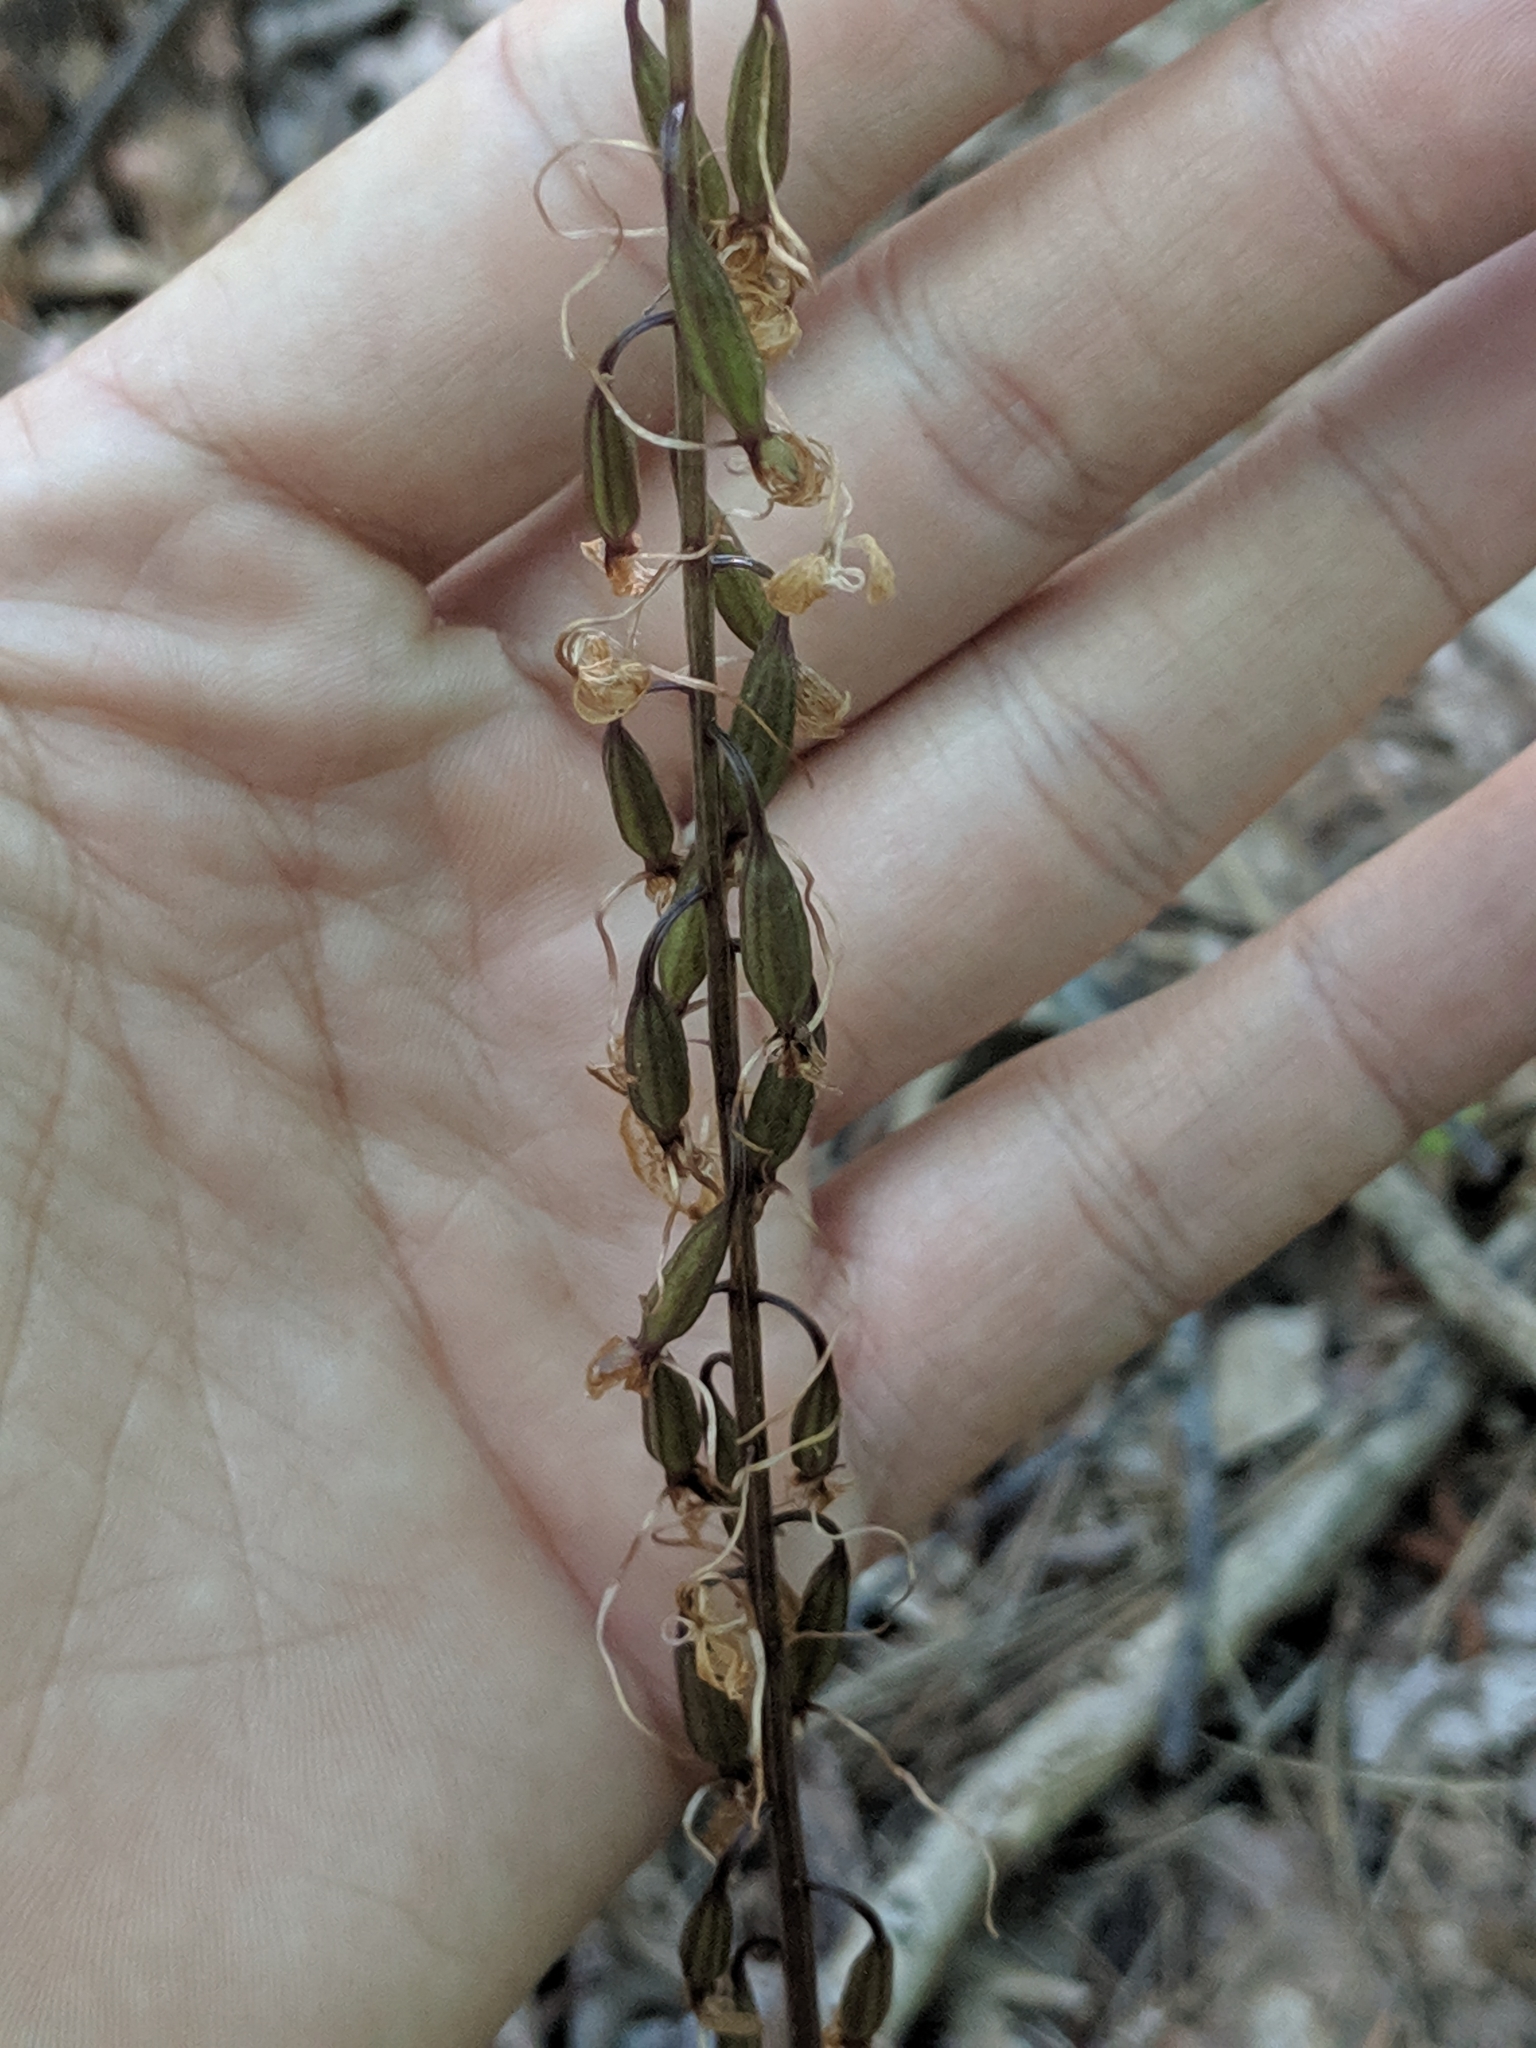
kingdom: Plantae
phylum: Tracheophyta
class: Liliopsida
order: Asparagales
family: Orchidaceae
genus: Tipularia
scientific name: Tipularia discolor
